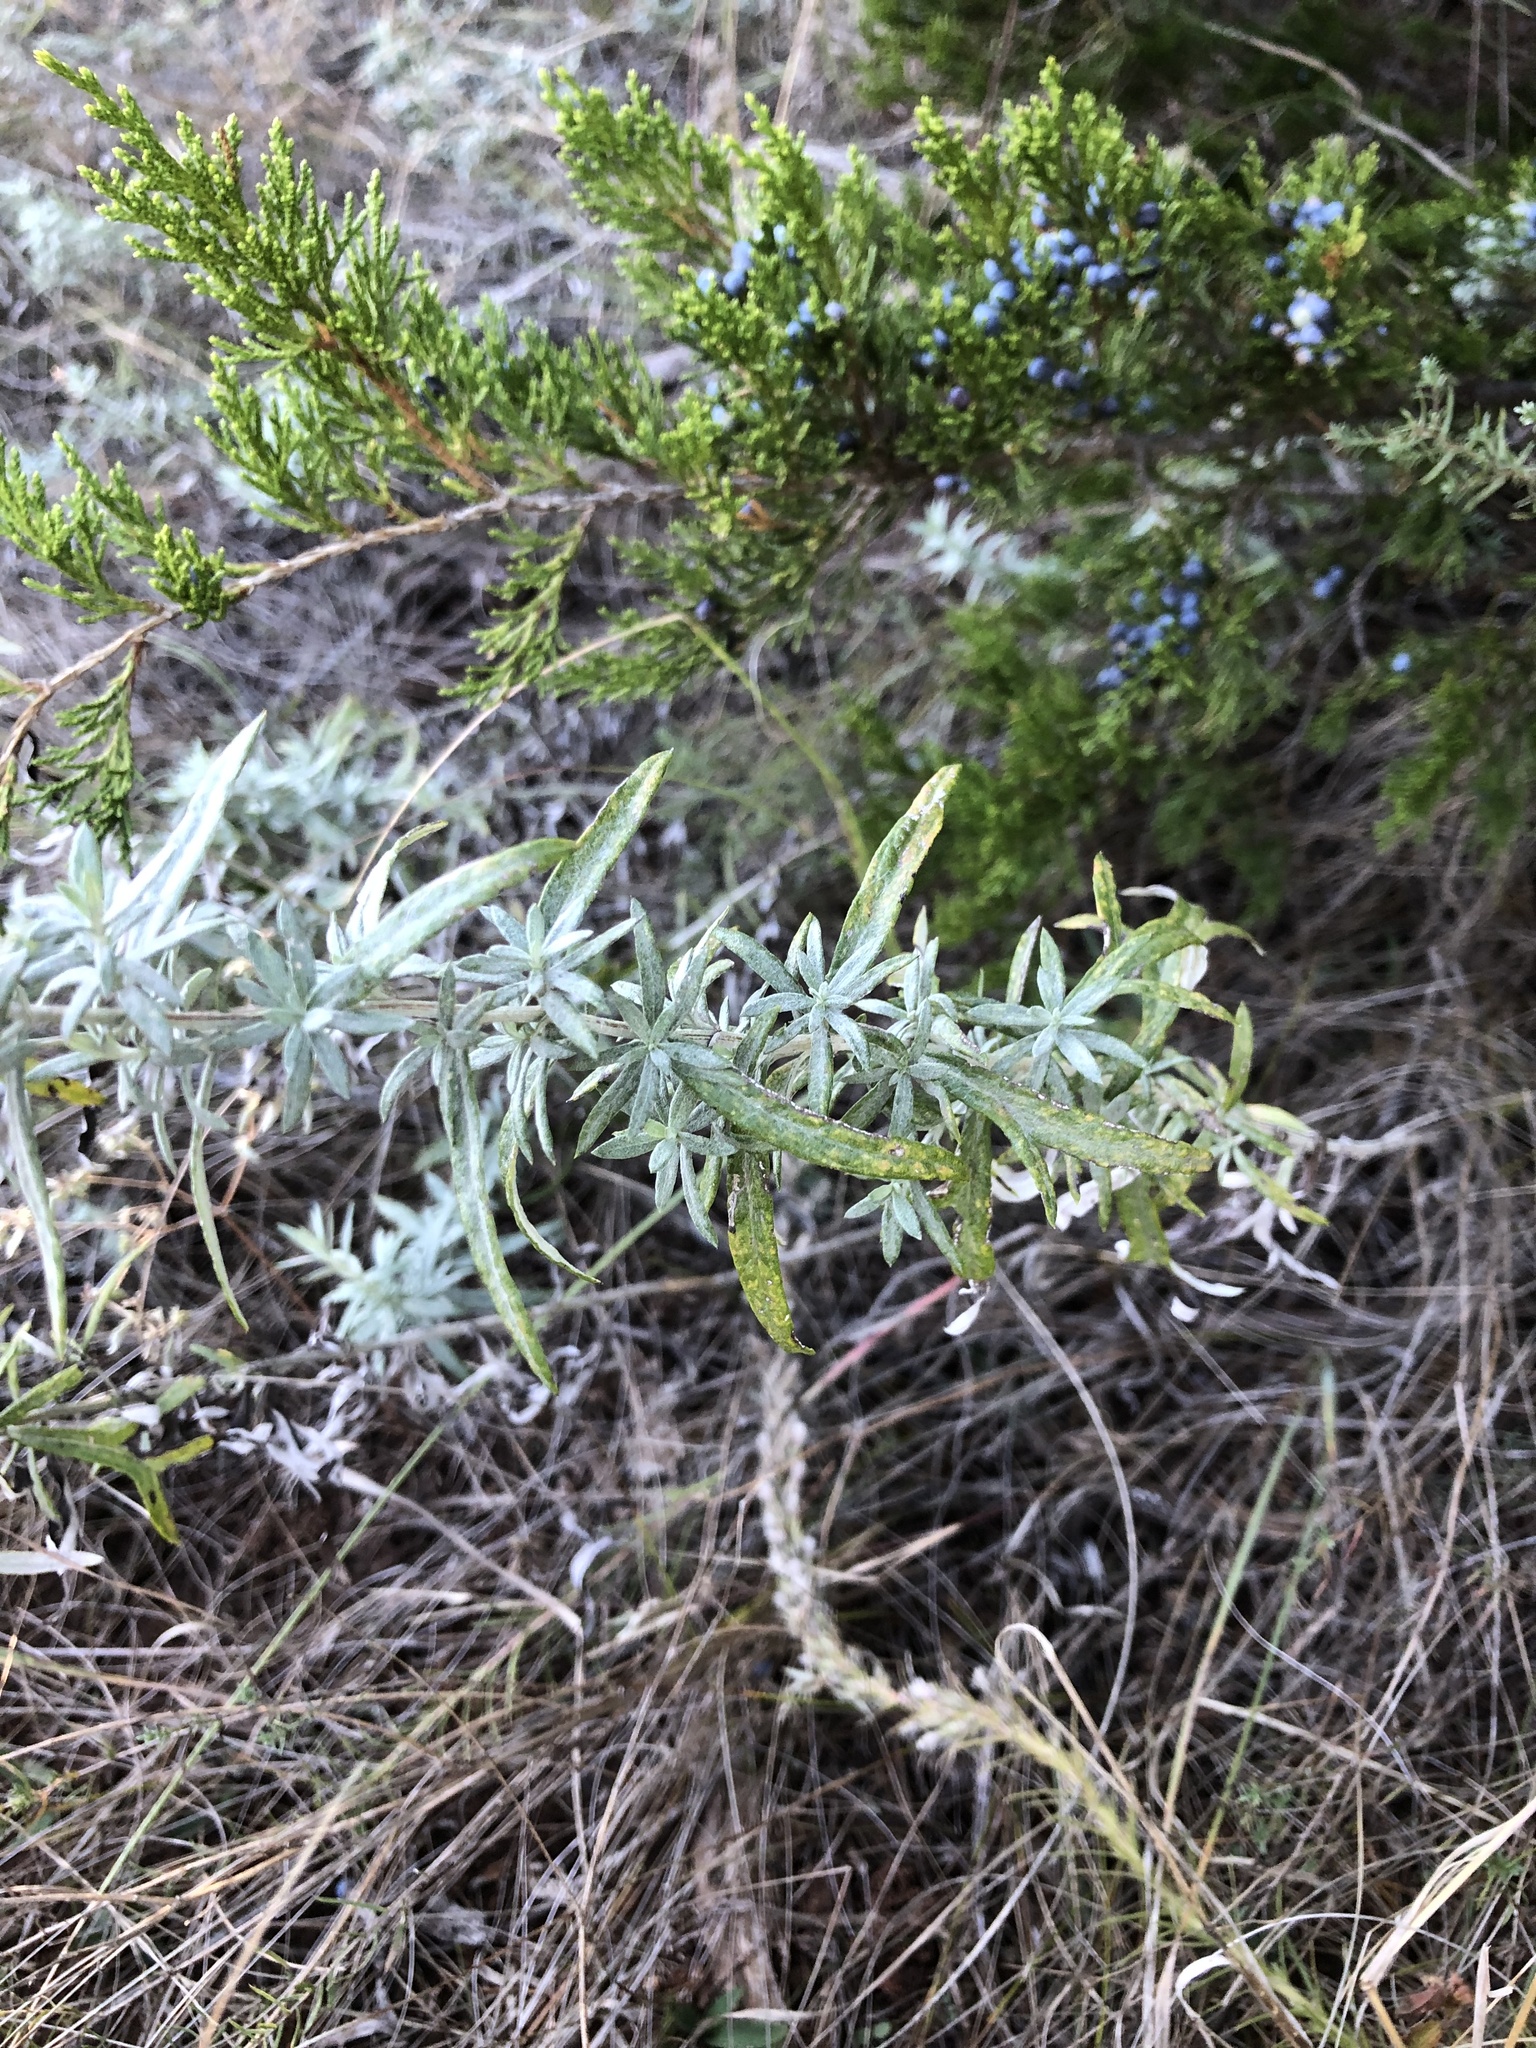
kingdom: Plantae
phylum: Tracheophyta
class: Magnoliopsida
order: Asterales
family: Asteraceae
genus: Artemisia
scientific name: Artemisia ludoviciana
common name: Western mugwort
